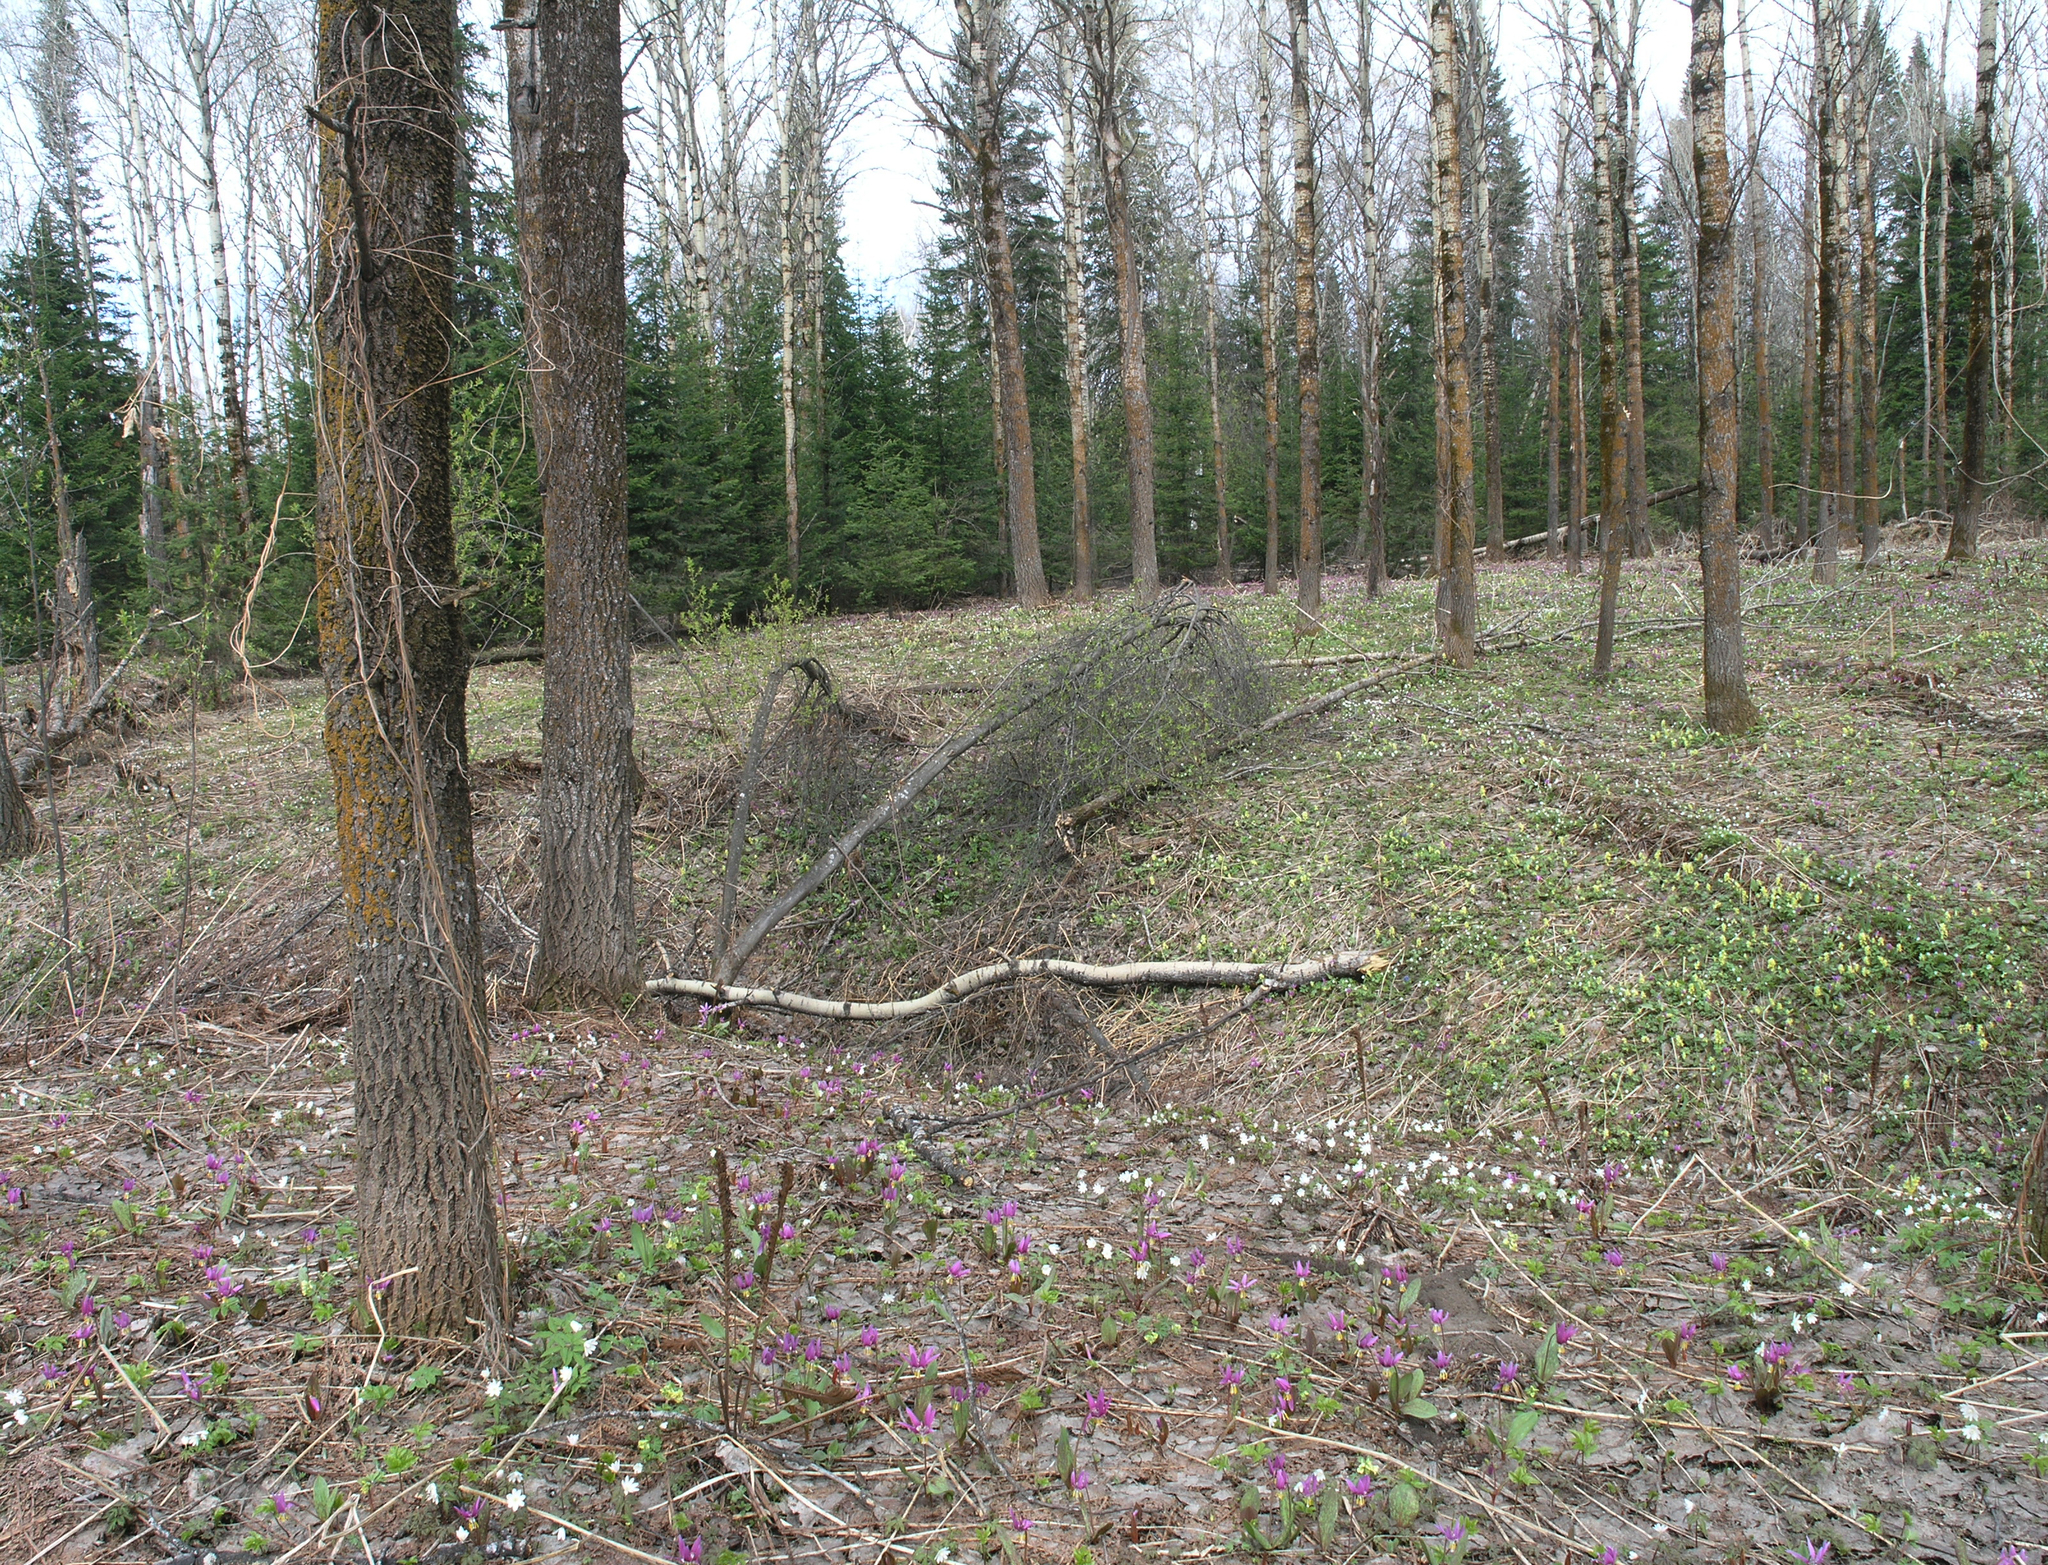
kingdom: Plantae
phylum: Tracheophyta
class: Magnoliopsida
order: Malpighiales
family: Salicaceae
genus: Populus
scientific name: Populus tremula
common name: European aspen
